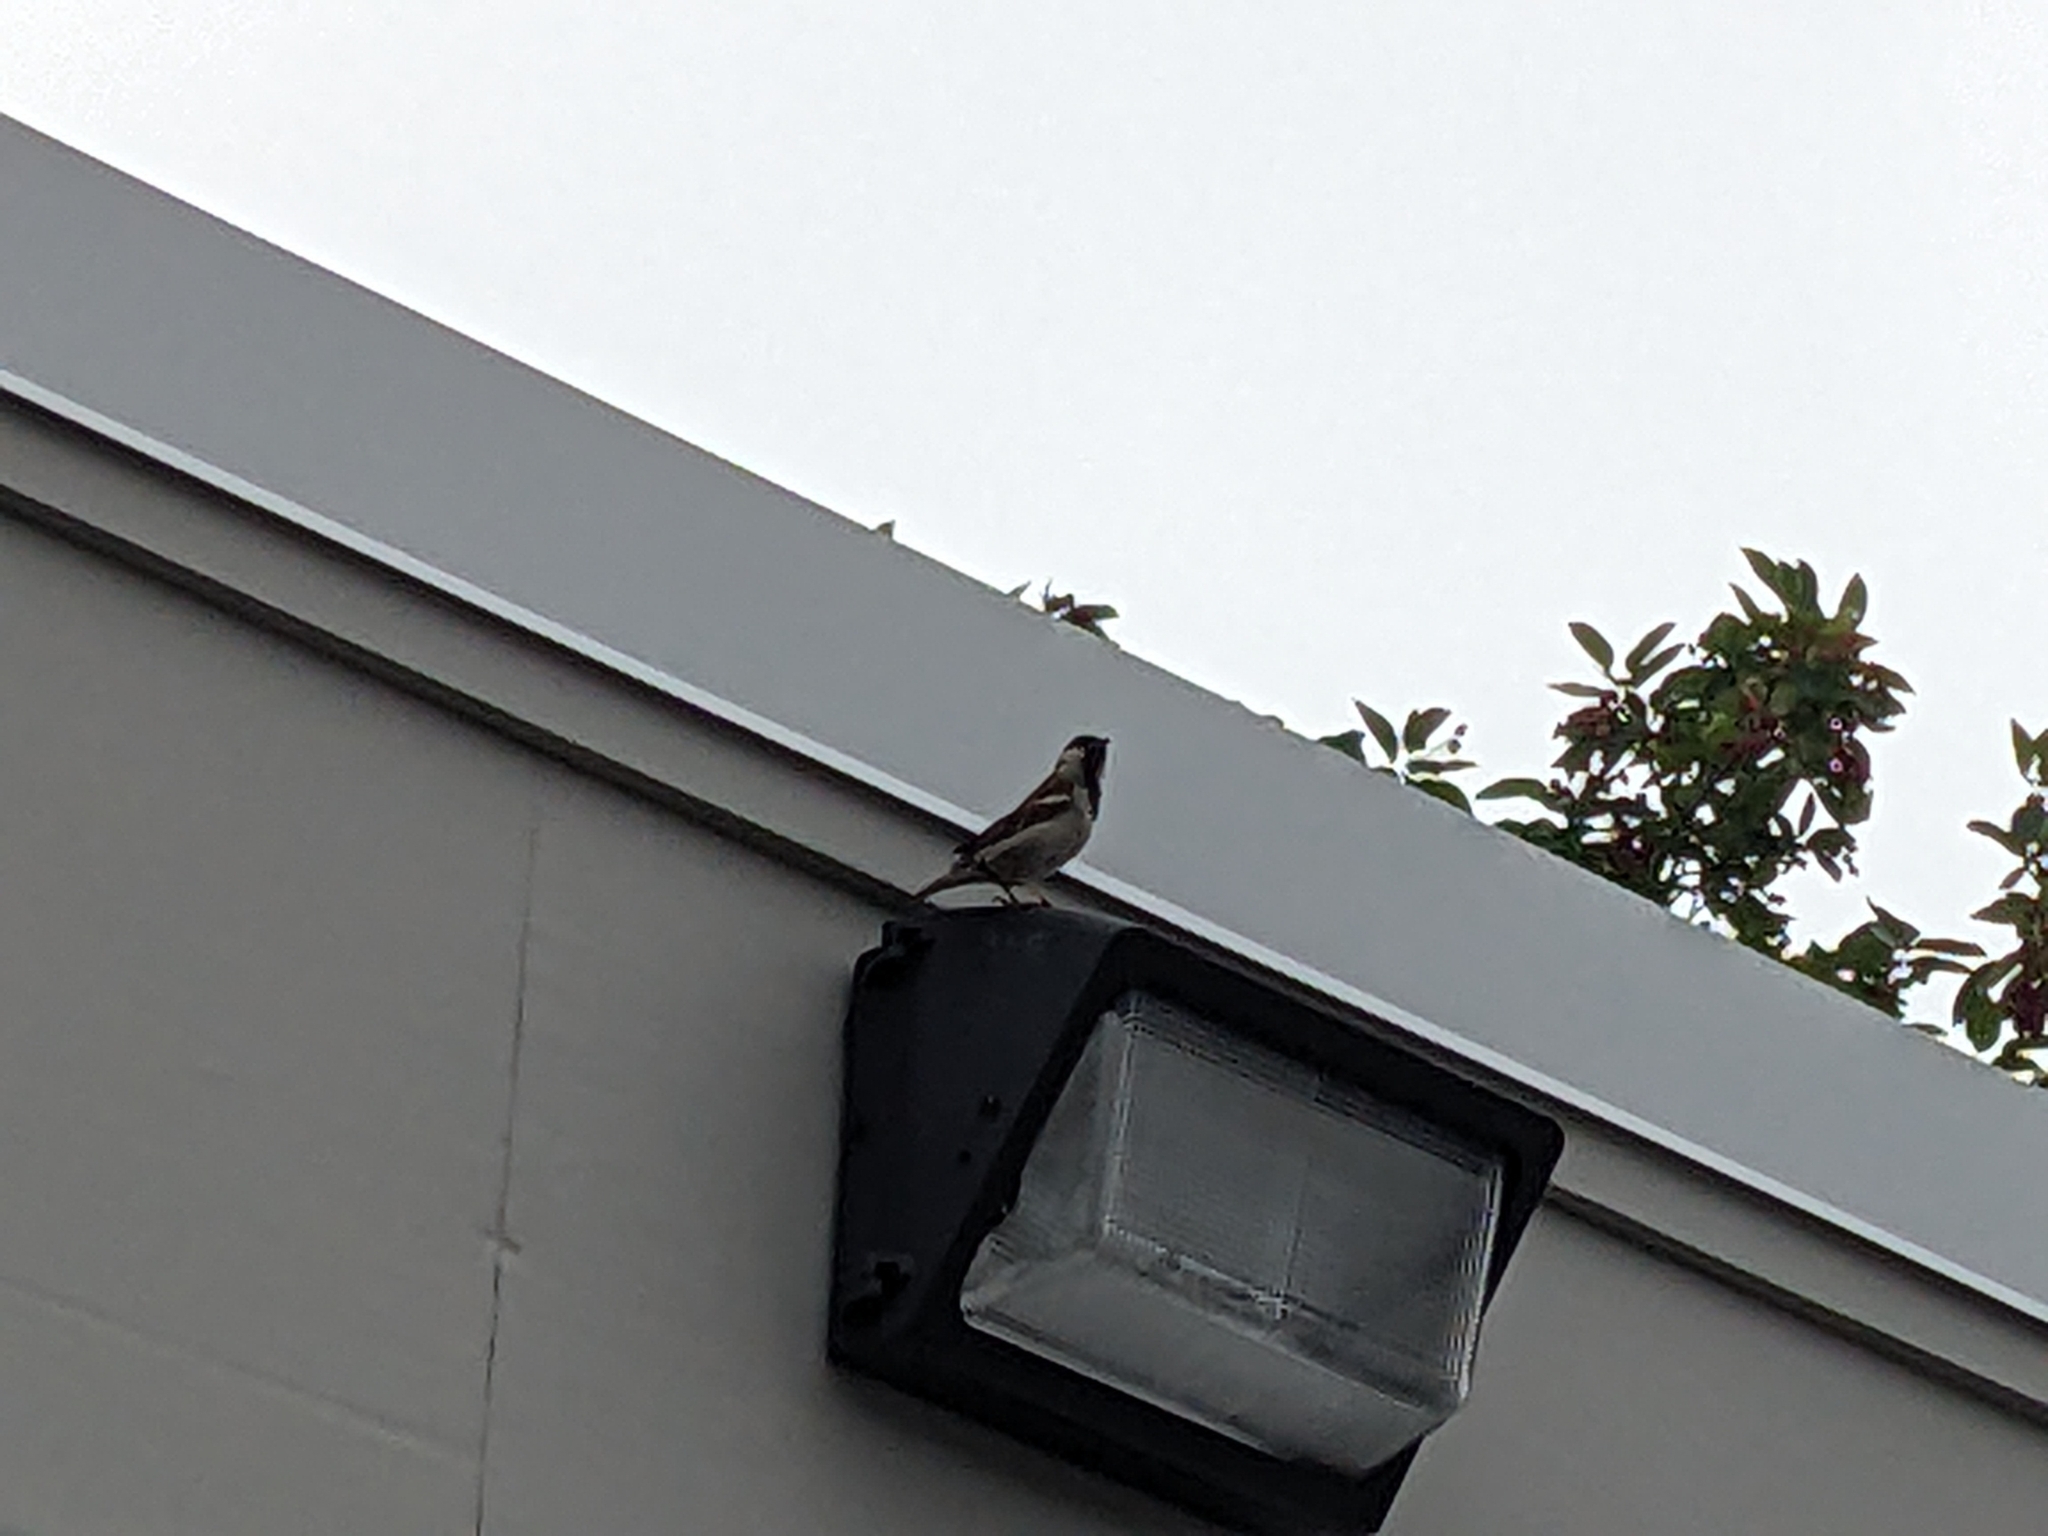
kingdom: Animalia
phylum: Chordata
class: Aves
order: Passeriformes
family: Passeridae
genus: Passer
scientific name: Passer domesticus
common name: House sparrow
